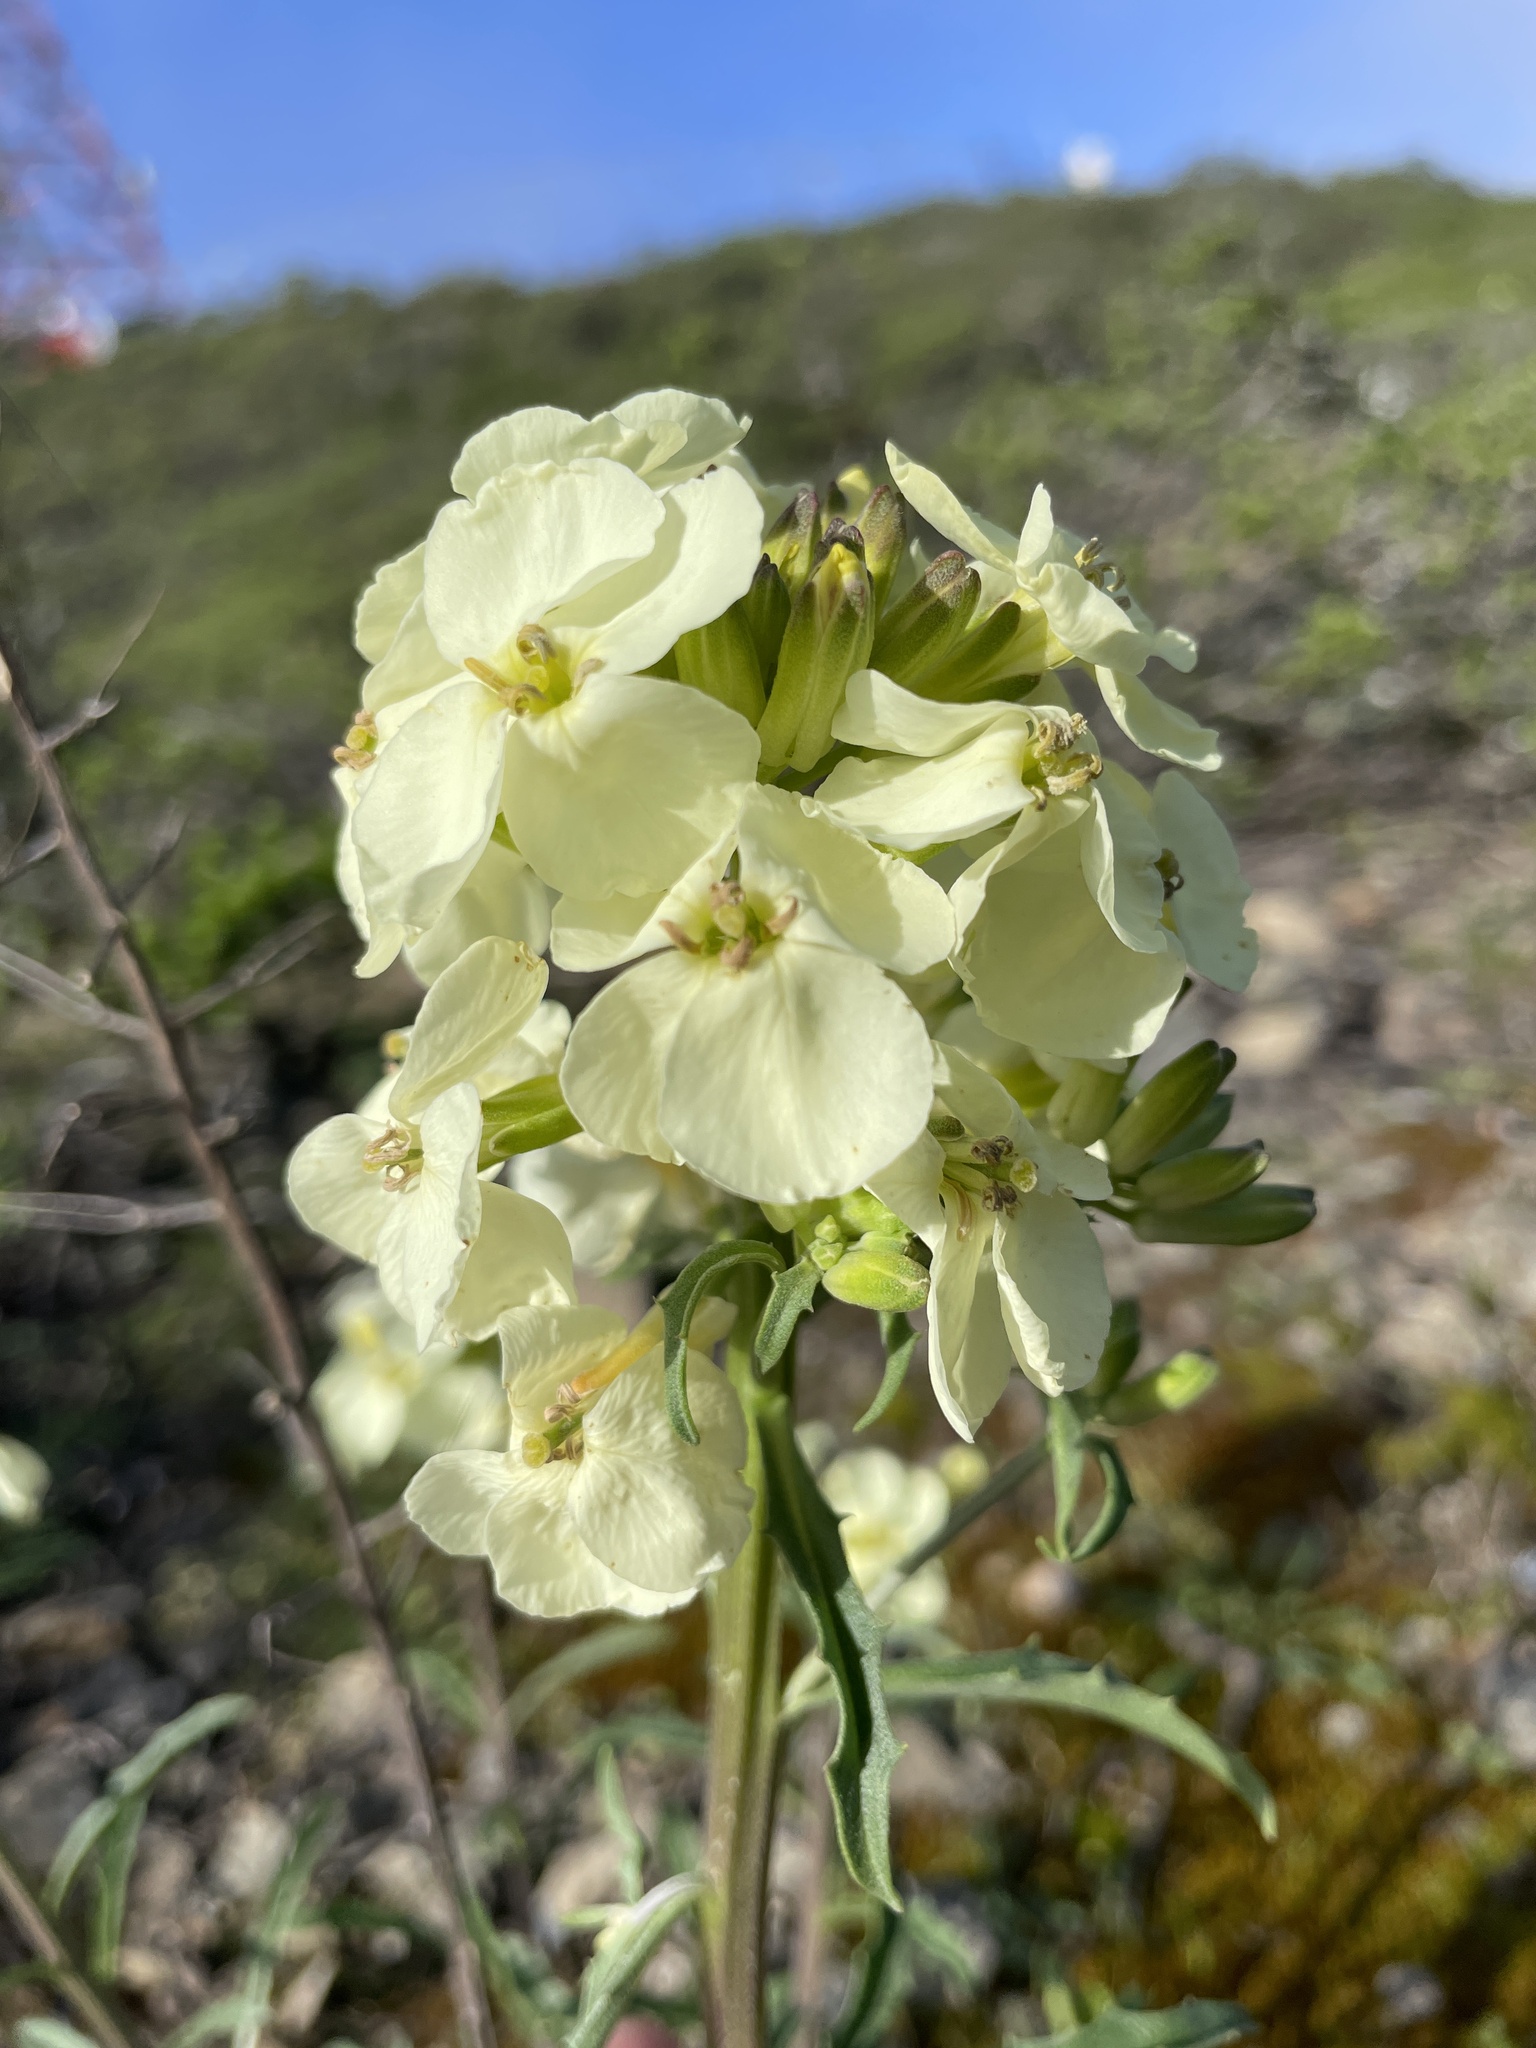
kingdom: Plantae
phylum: Tracheophyta
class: Magnoliopsida
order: Brassicales
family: Brassicaceae
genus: Erysimum
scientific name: Erysimum franciscanum
